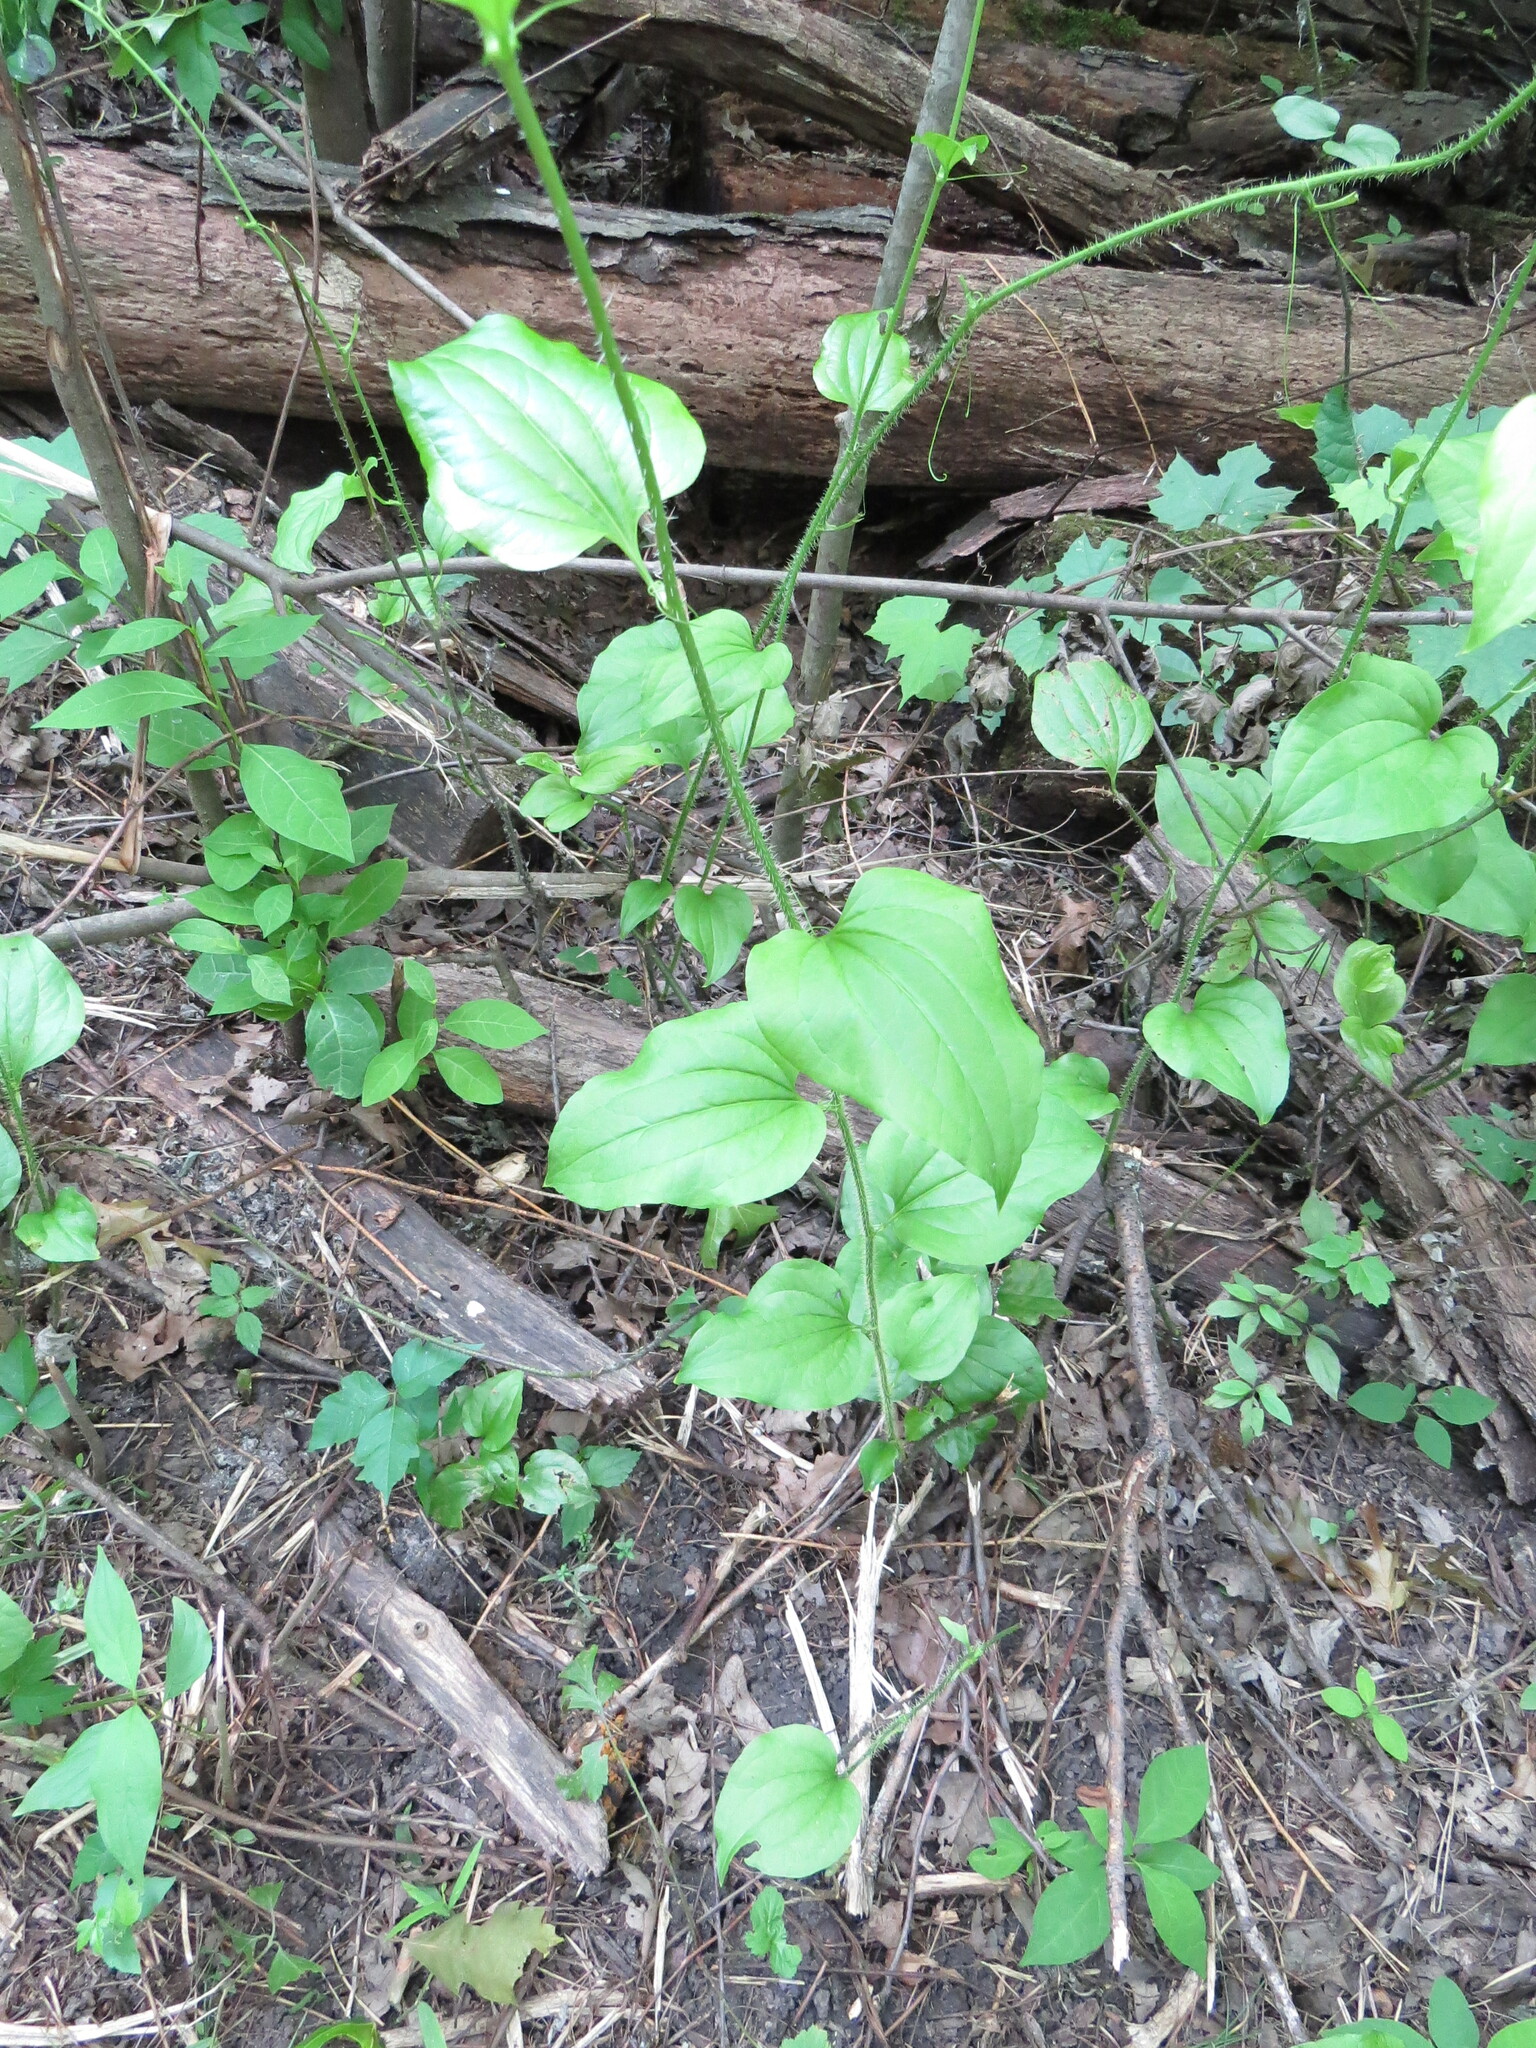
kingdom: Plantae
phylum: Tracheophyta
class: Liliopsida
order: Liliales
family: Smilacaceae
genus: Smilax
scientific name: Smilax tamnoides
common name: Hellfetter
